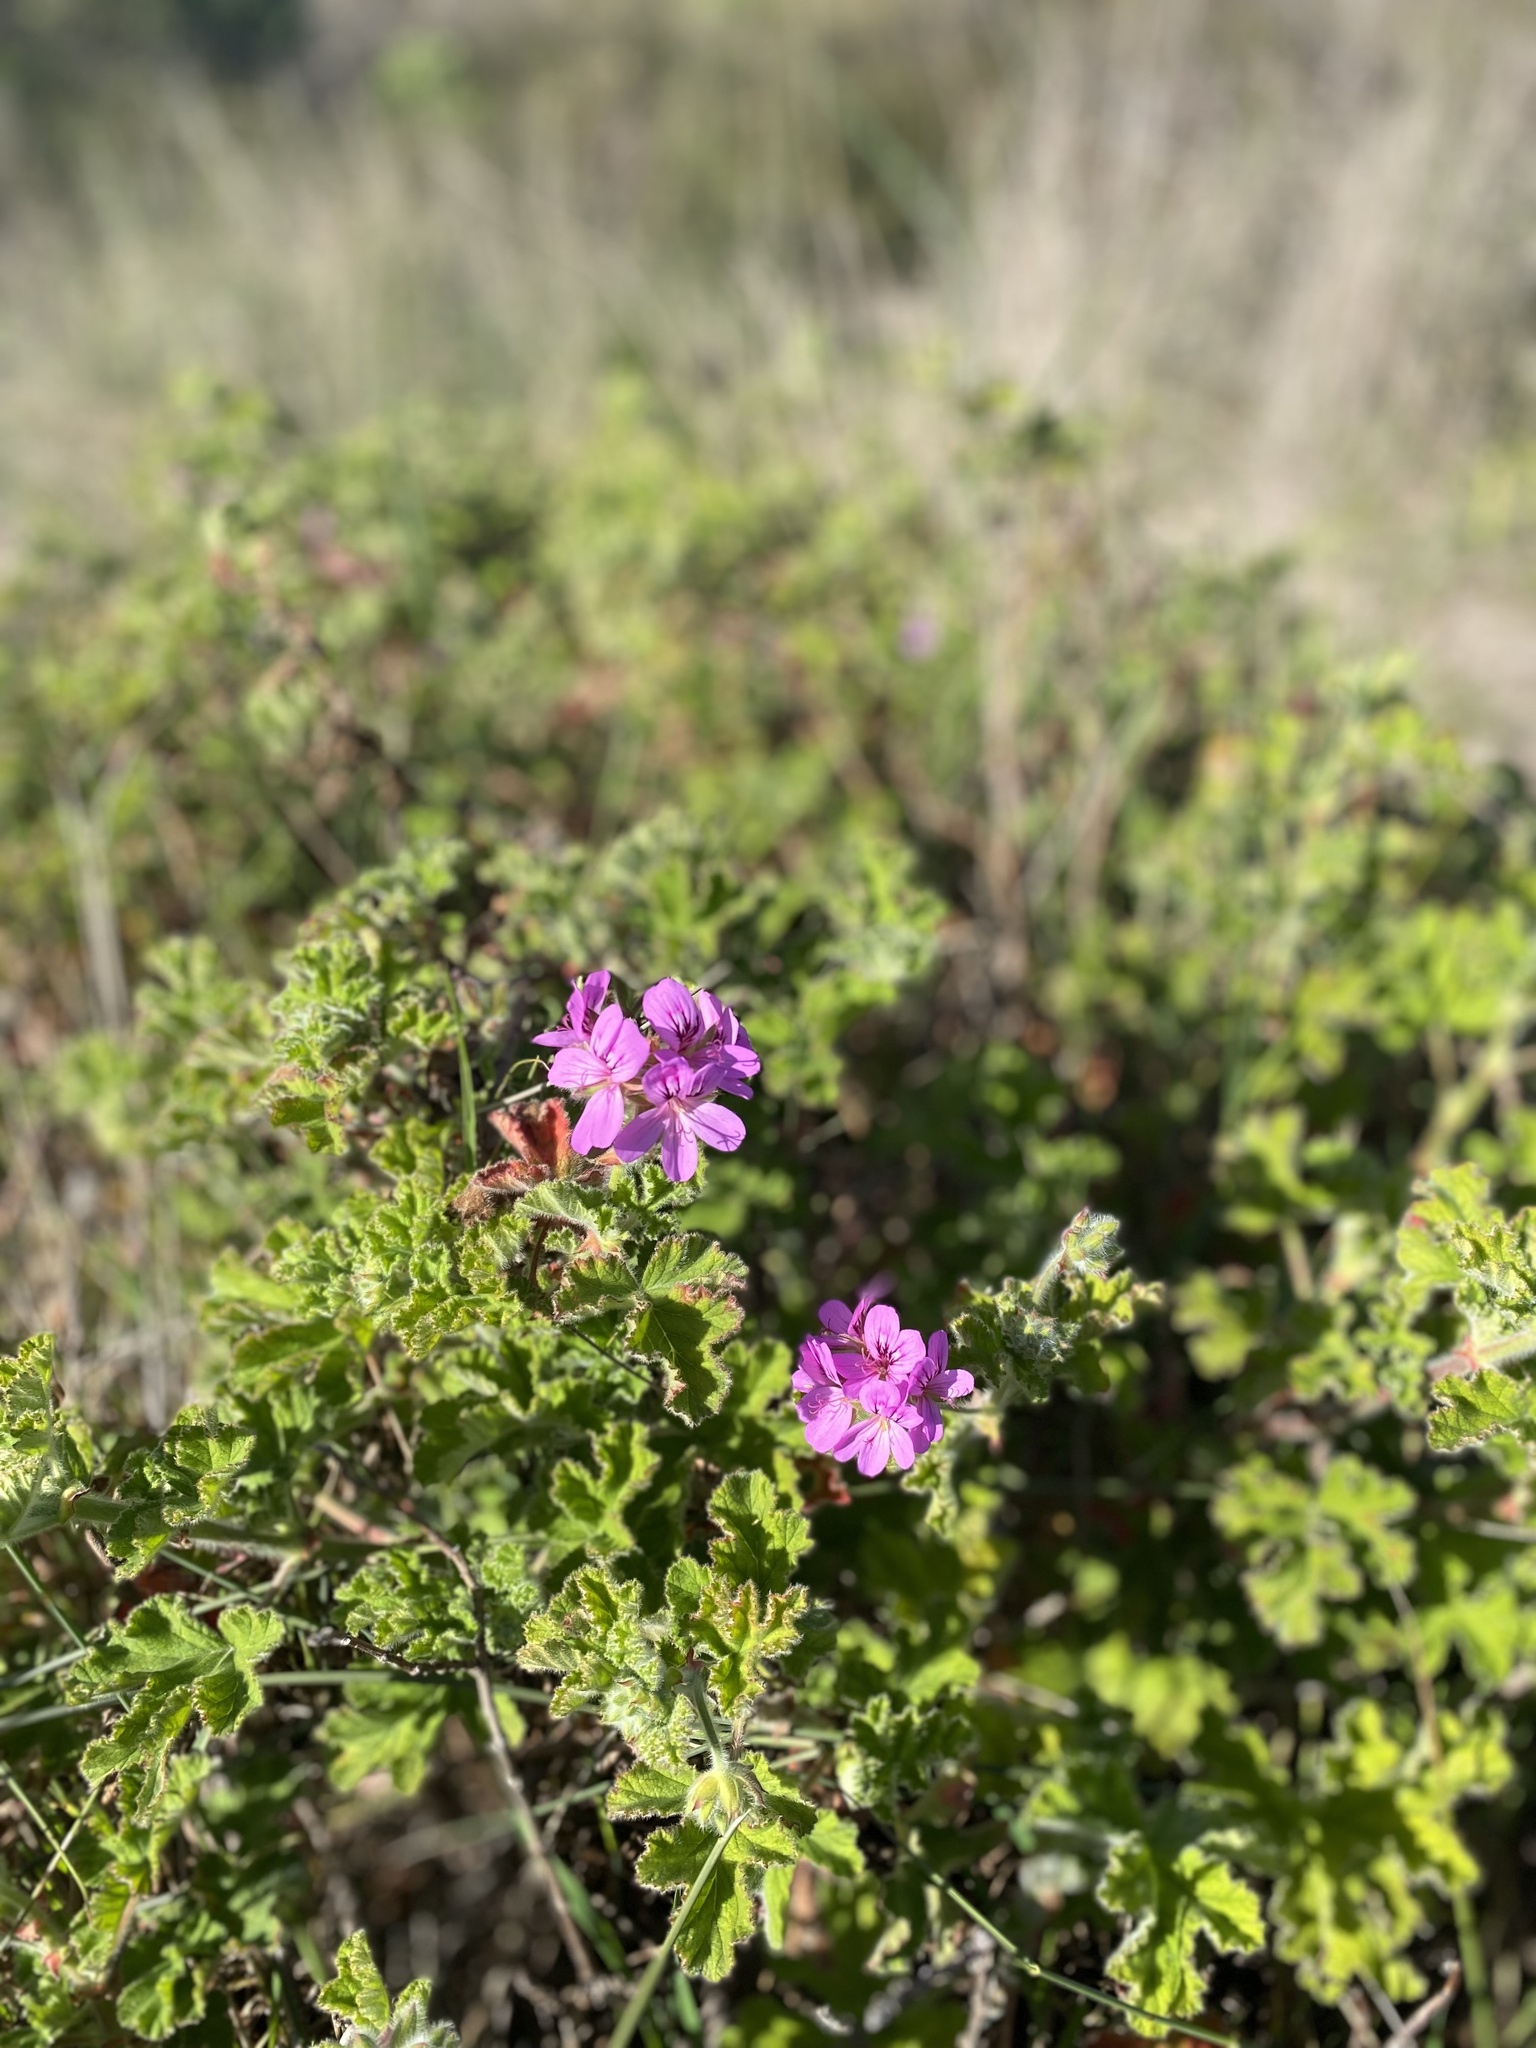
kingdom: Plantae
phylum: Tracheophyta
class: Magnoliopsida
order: Geraniales
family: Geraniaceae
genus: Pelargonium
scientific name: Pelargonium capitatum
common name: Rose scented geranium
